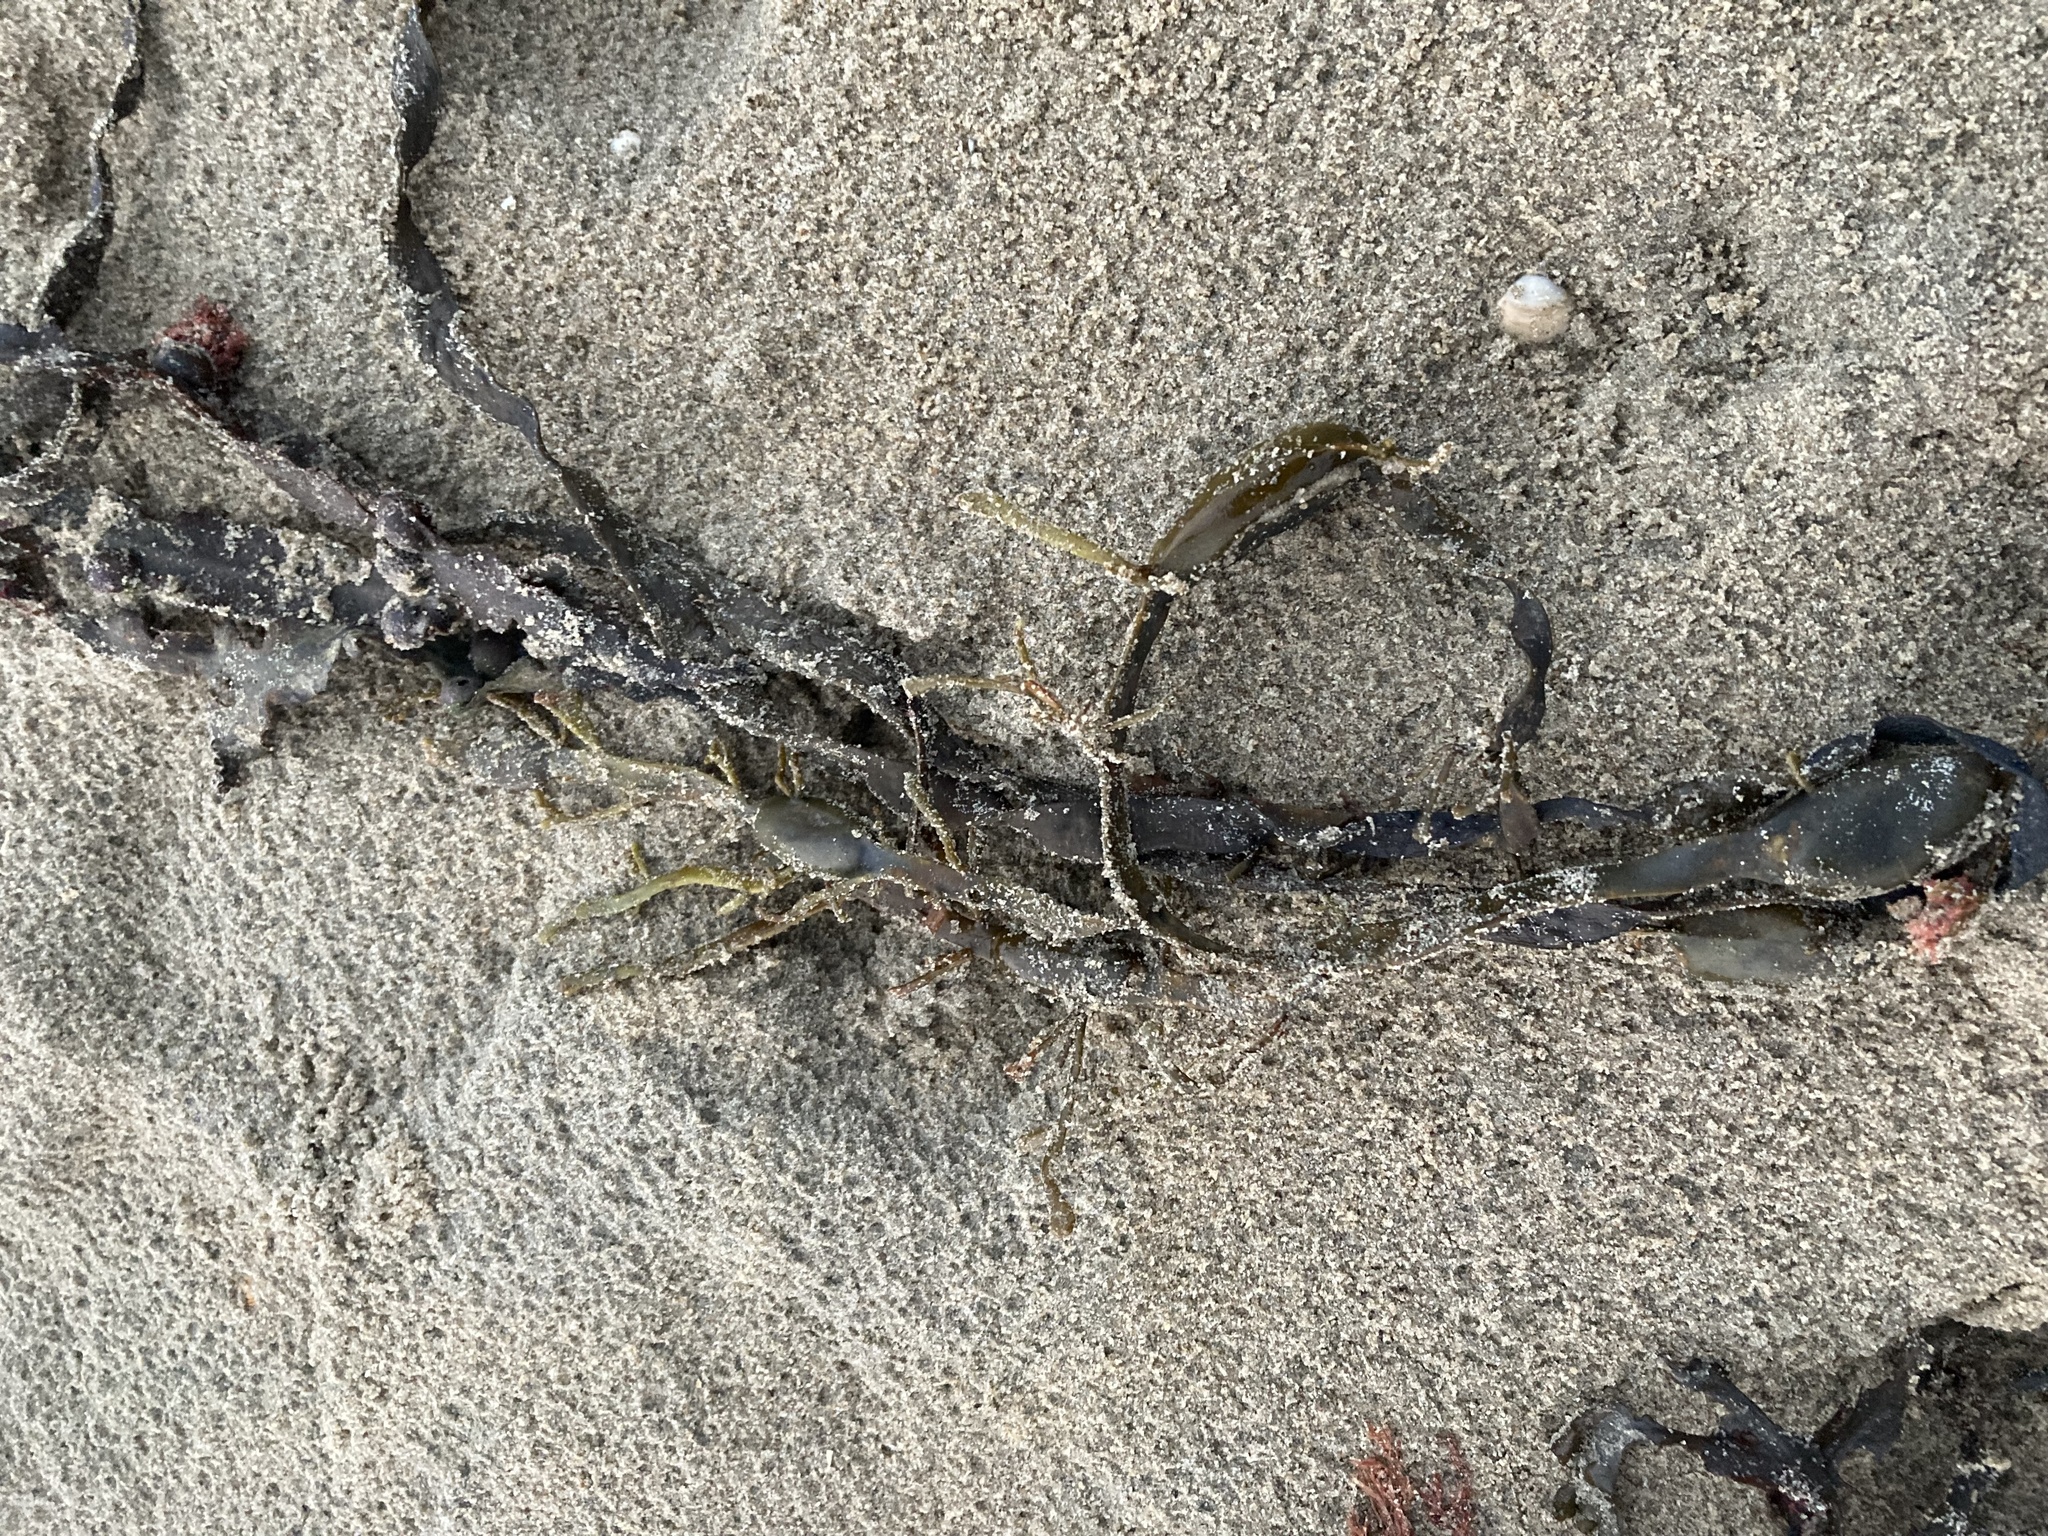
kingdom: Chromista
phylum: Ochrophyta
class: Phaeophyceae
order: Fucales
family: Fucaceae
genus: Ascophyllum
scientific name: Ascophyllum nodosum
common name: Knotted wrack
